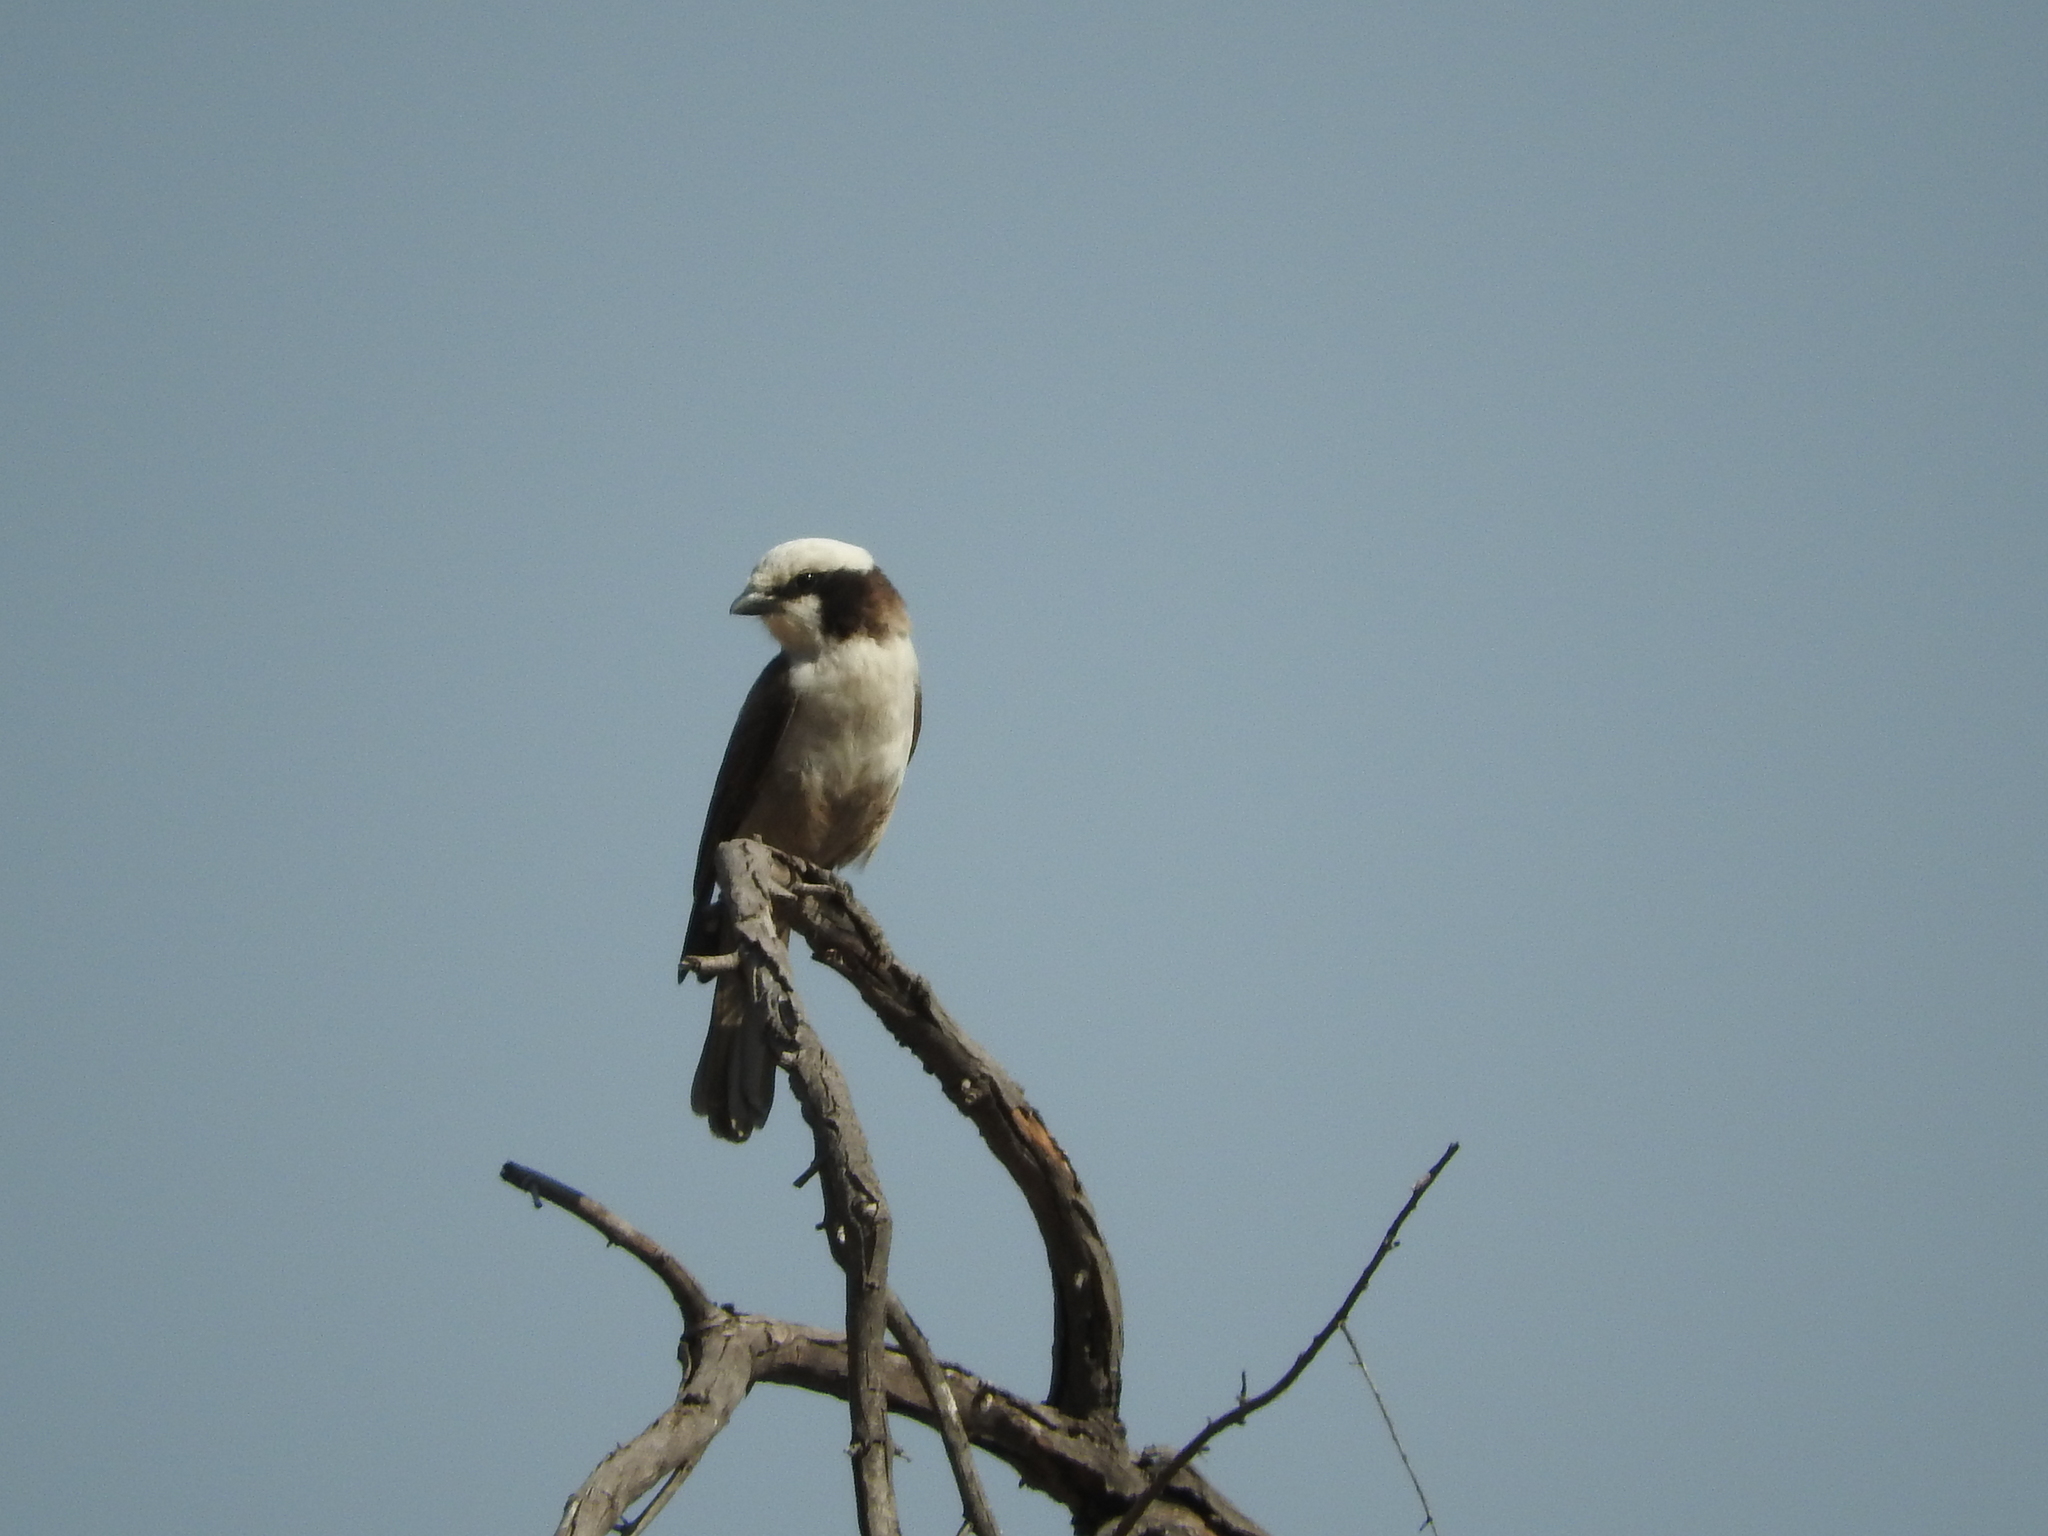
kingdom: Animalia
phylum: Chordata
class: Aves
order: Passeriformes
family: Laniidae
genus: Eurocephalus
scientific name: Eurocephalus anguitimens
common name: Southern white-crowned shrike
